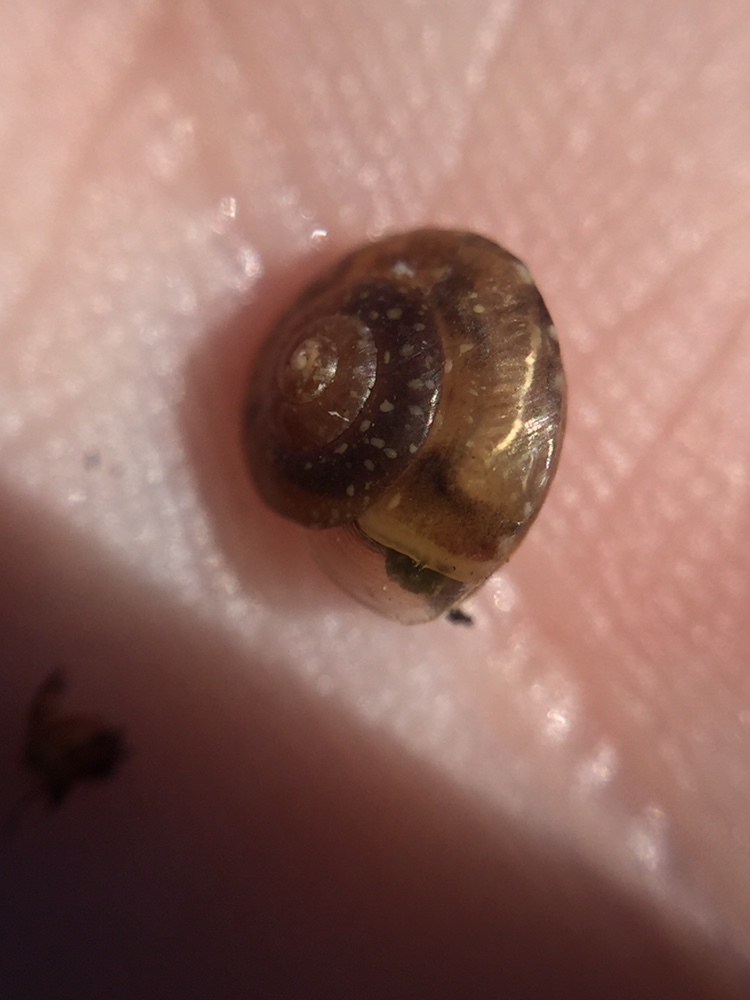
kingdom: Animalia
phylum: Mollusca
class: Gastropoda
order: Stylommatophora
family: Hygromiidae
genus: Hygromia
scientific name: Hygromia cinctella
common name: Girdled snail
